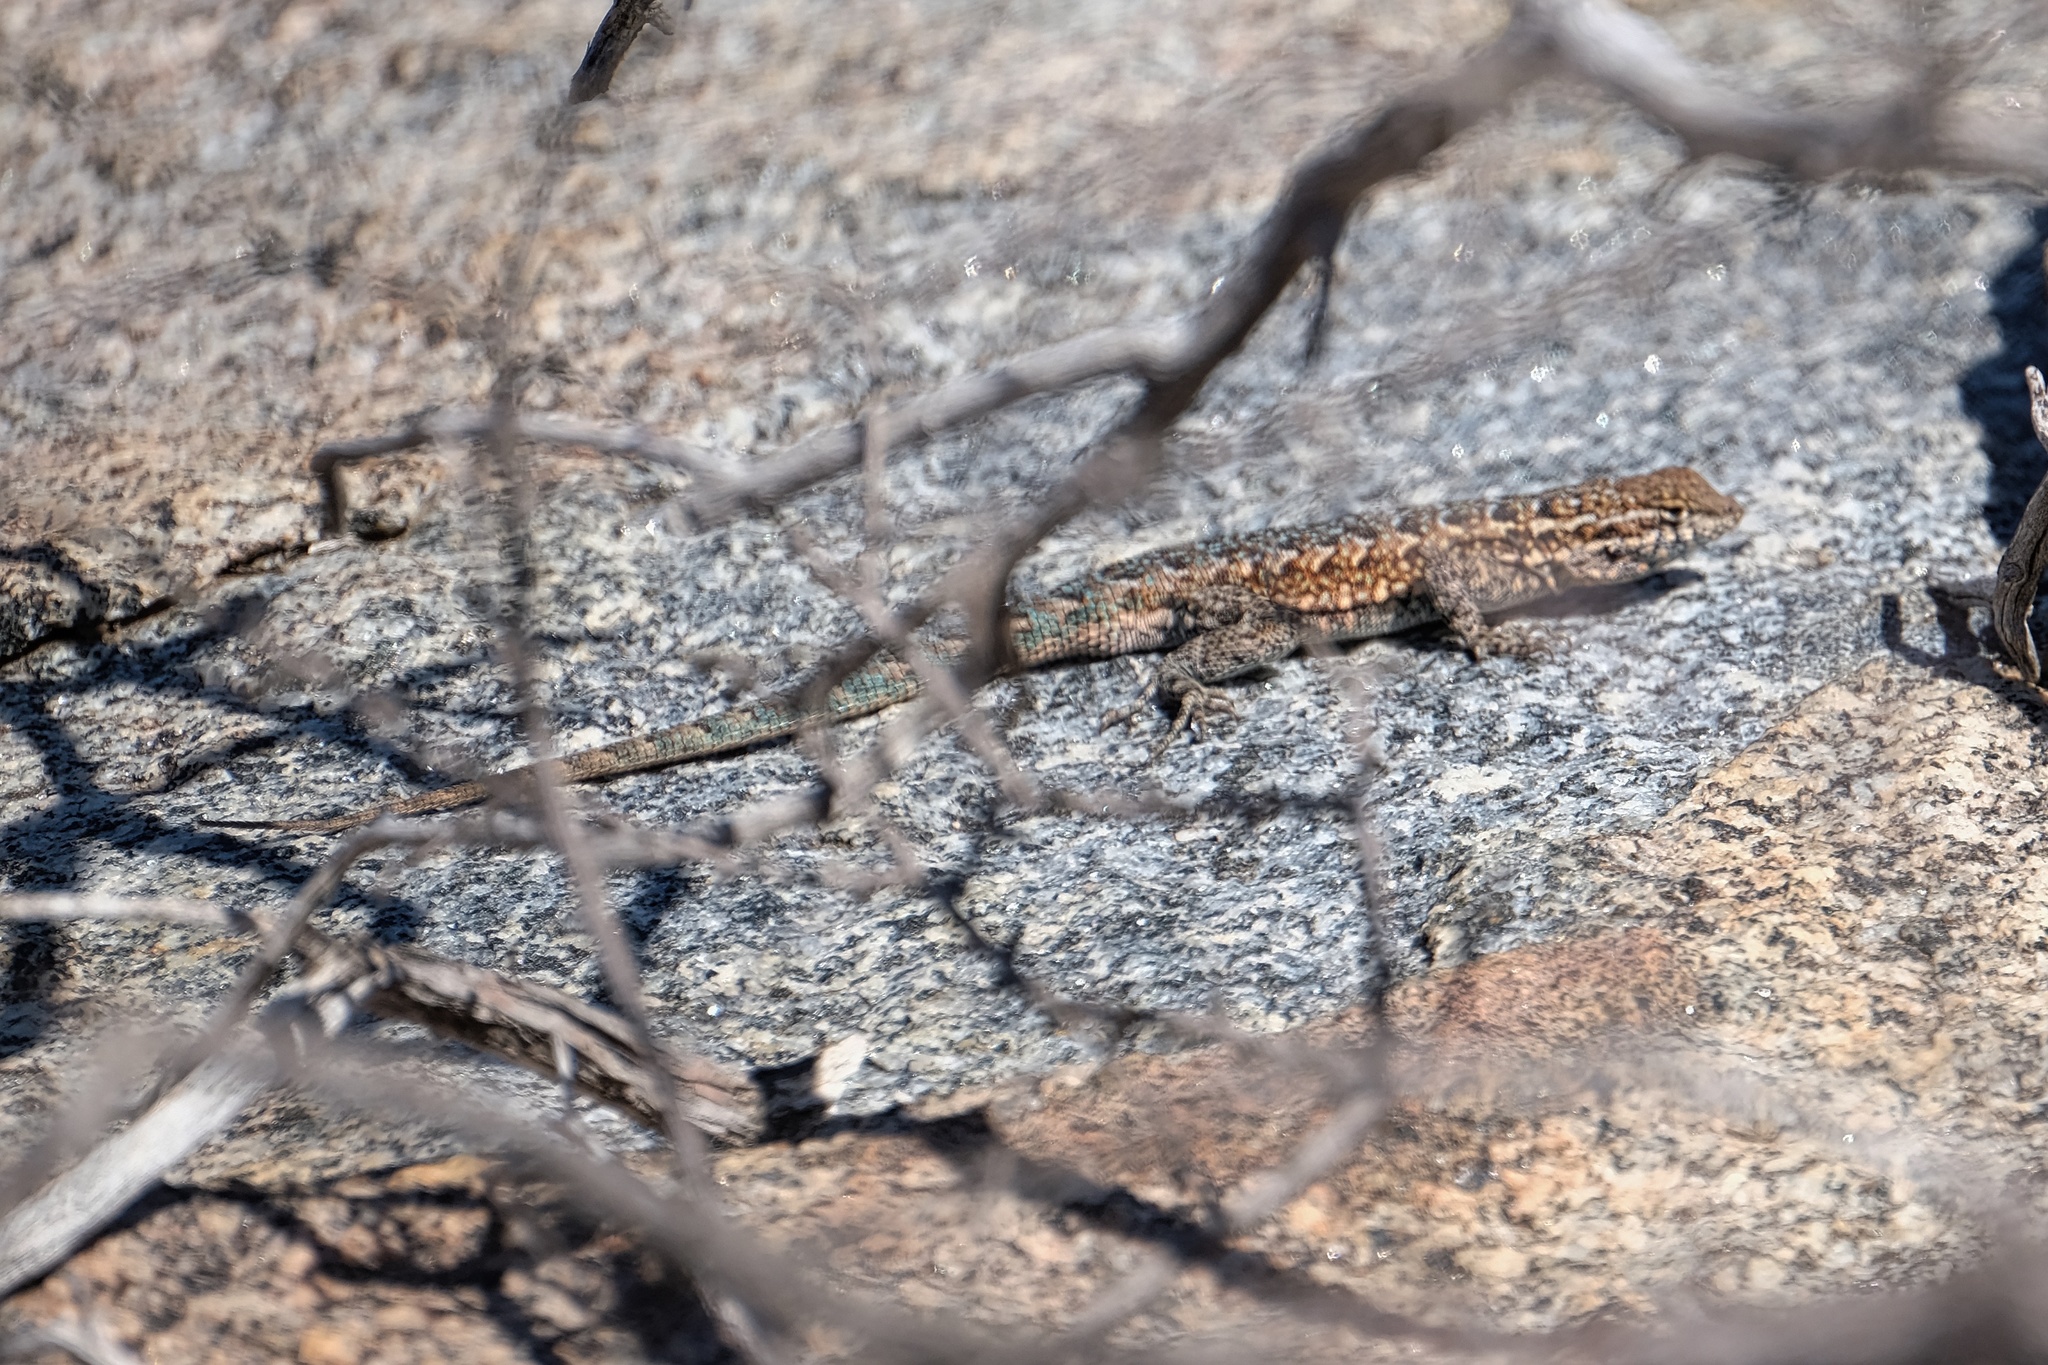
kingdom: Animalia
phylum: Chordata
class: Squamata
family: Phrynosomatidae
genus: Uta
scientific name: Uta stansburiana
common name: Side-blotched lizard
